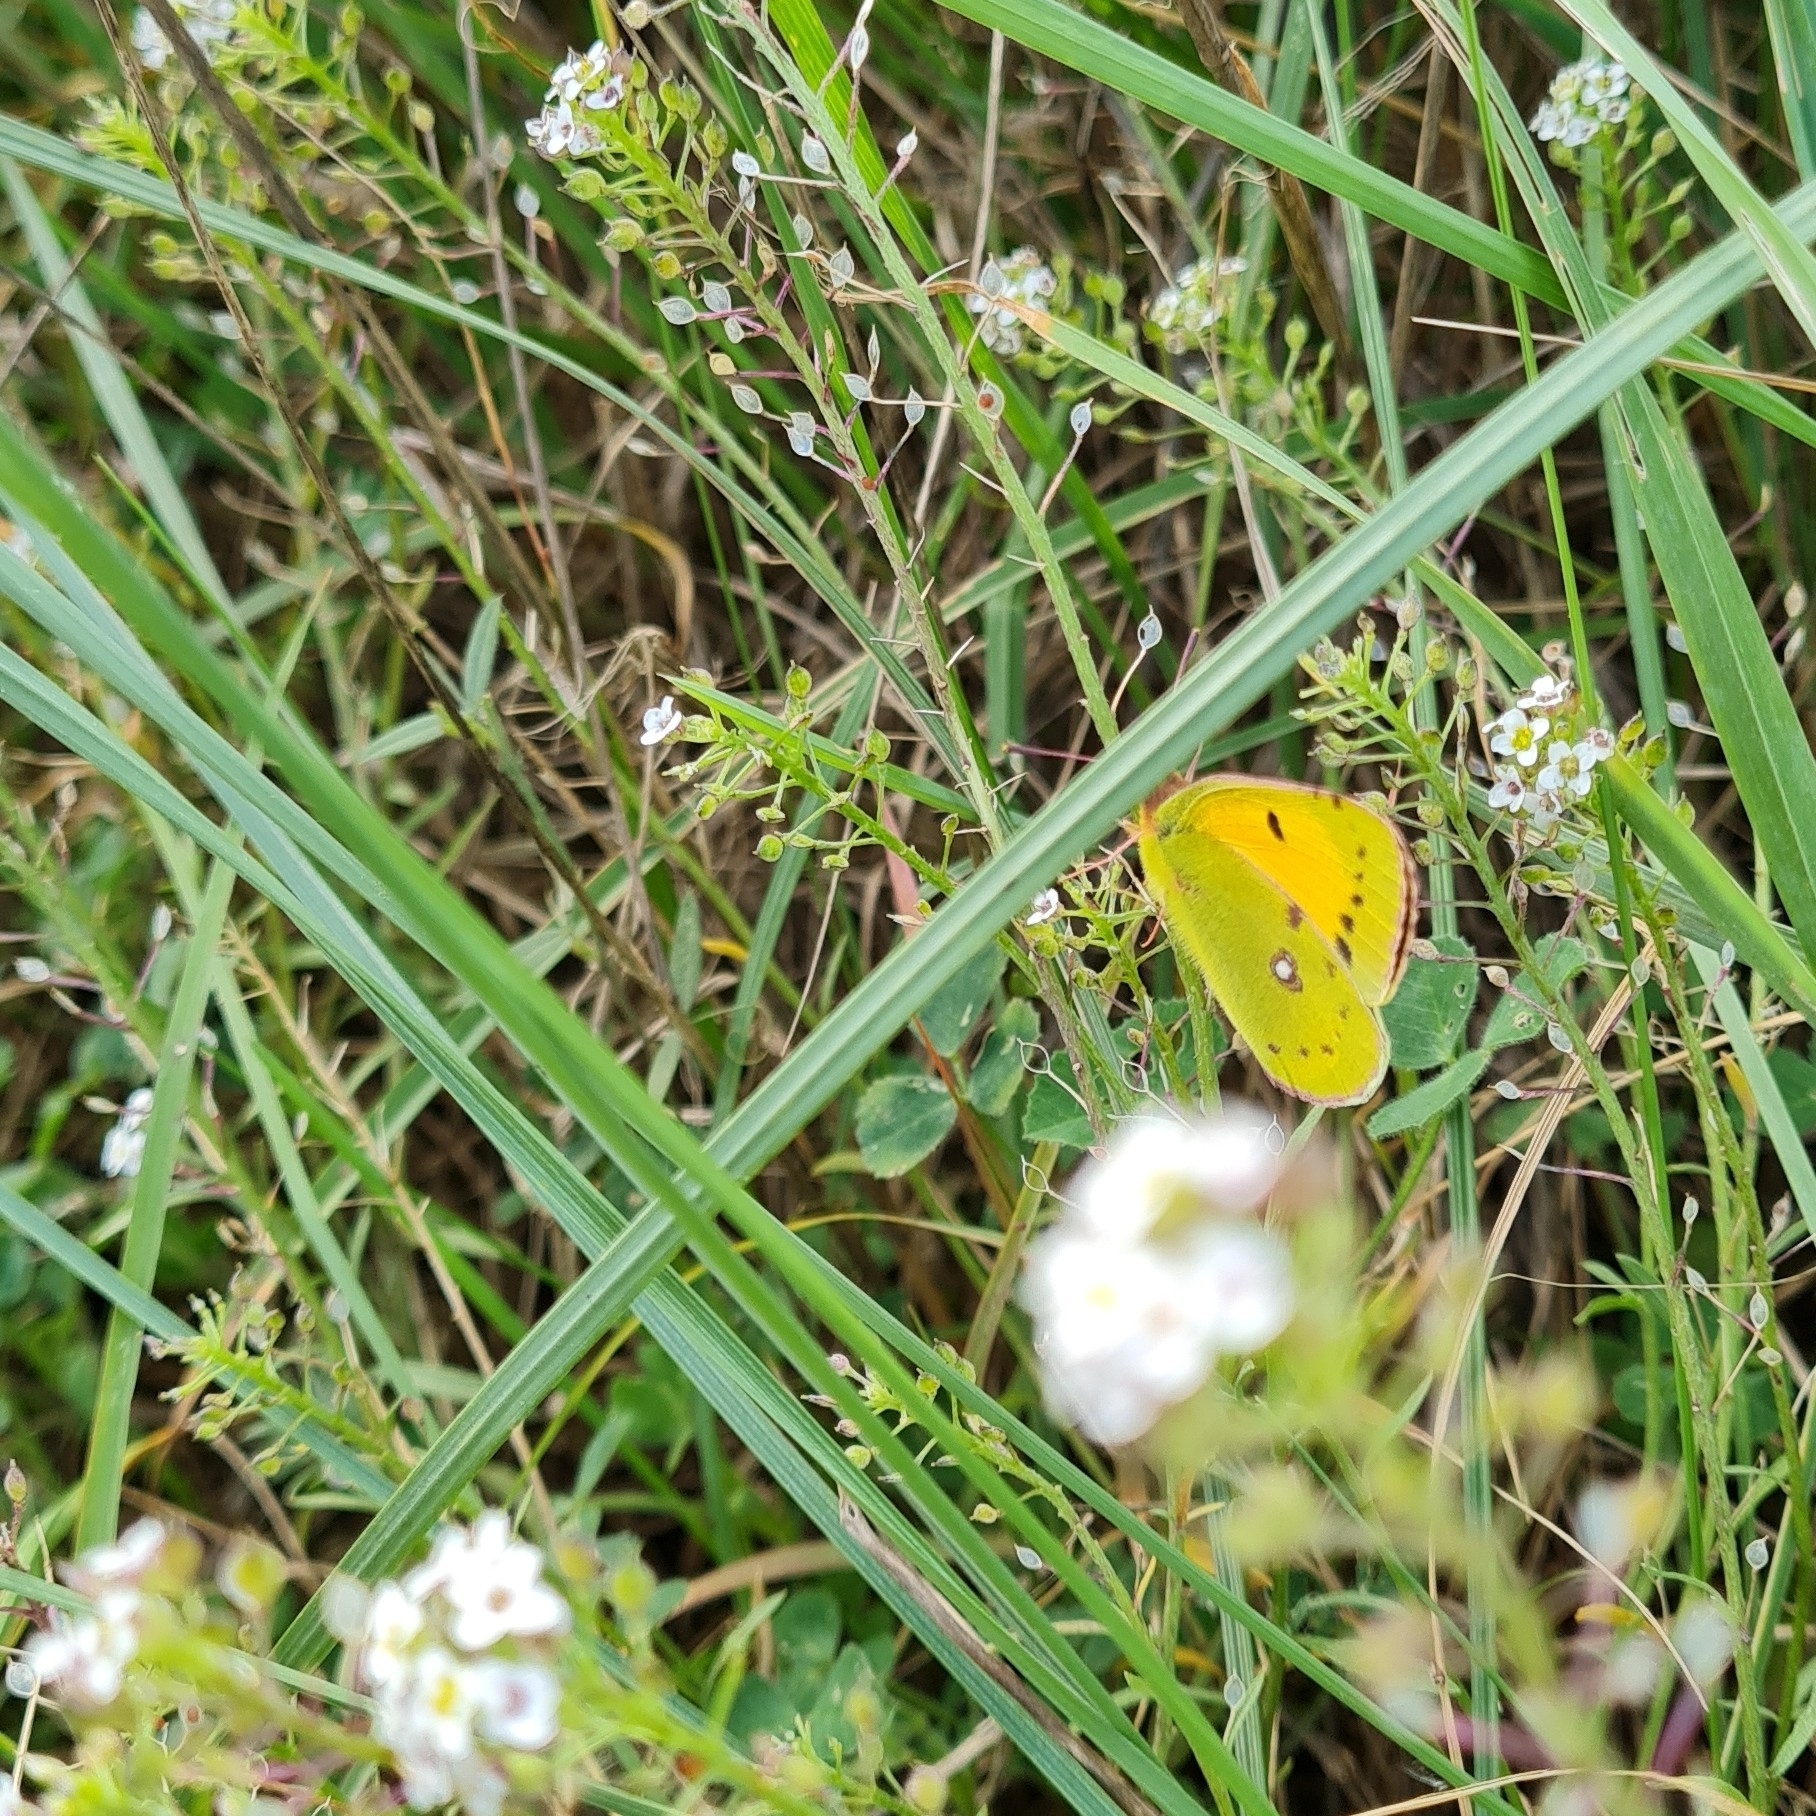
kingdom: Animalia
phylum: Arthropoda
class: Insecta
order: Lepidoptera
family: Pieridae
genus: Colias
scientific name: Colias croceus
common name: Clouded yellow
